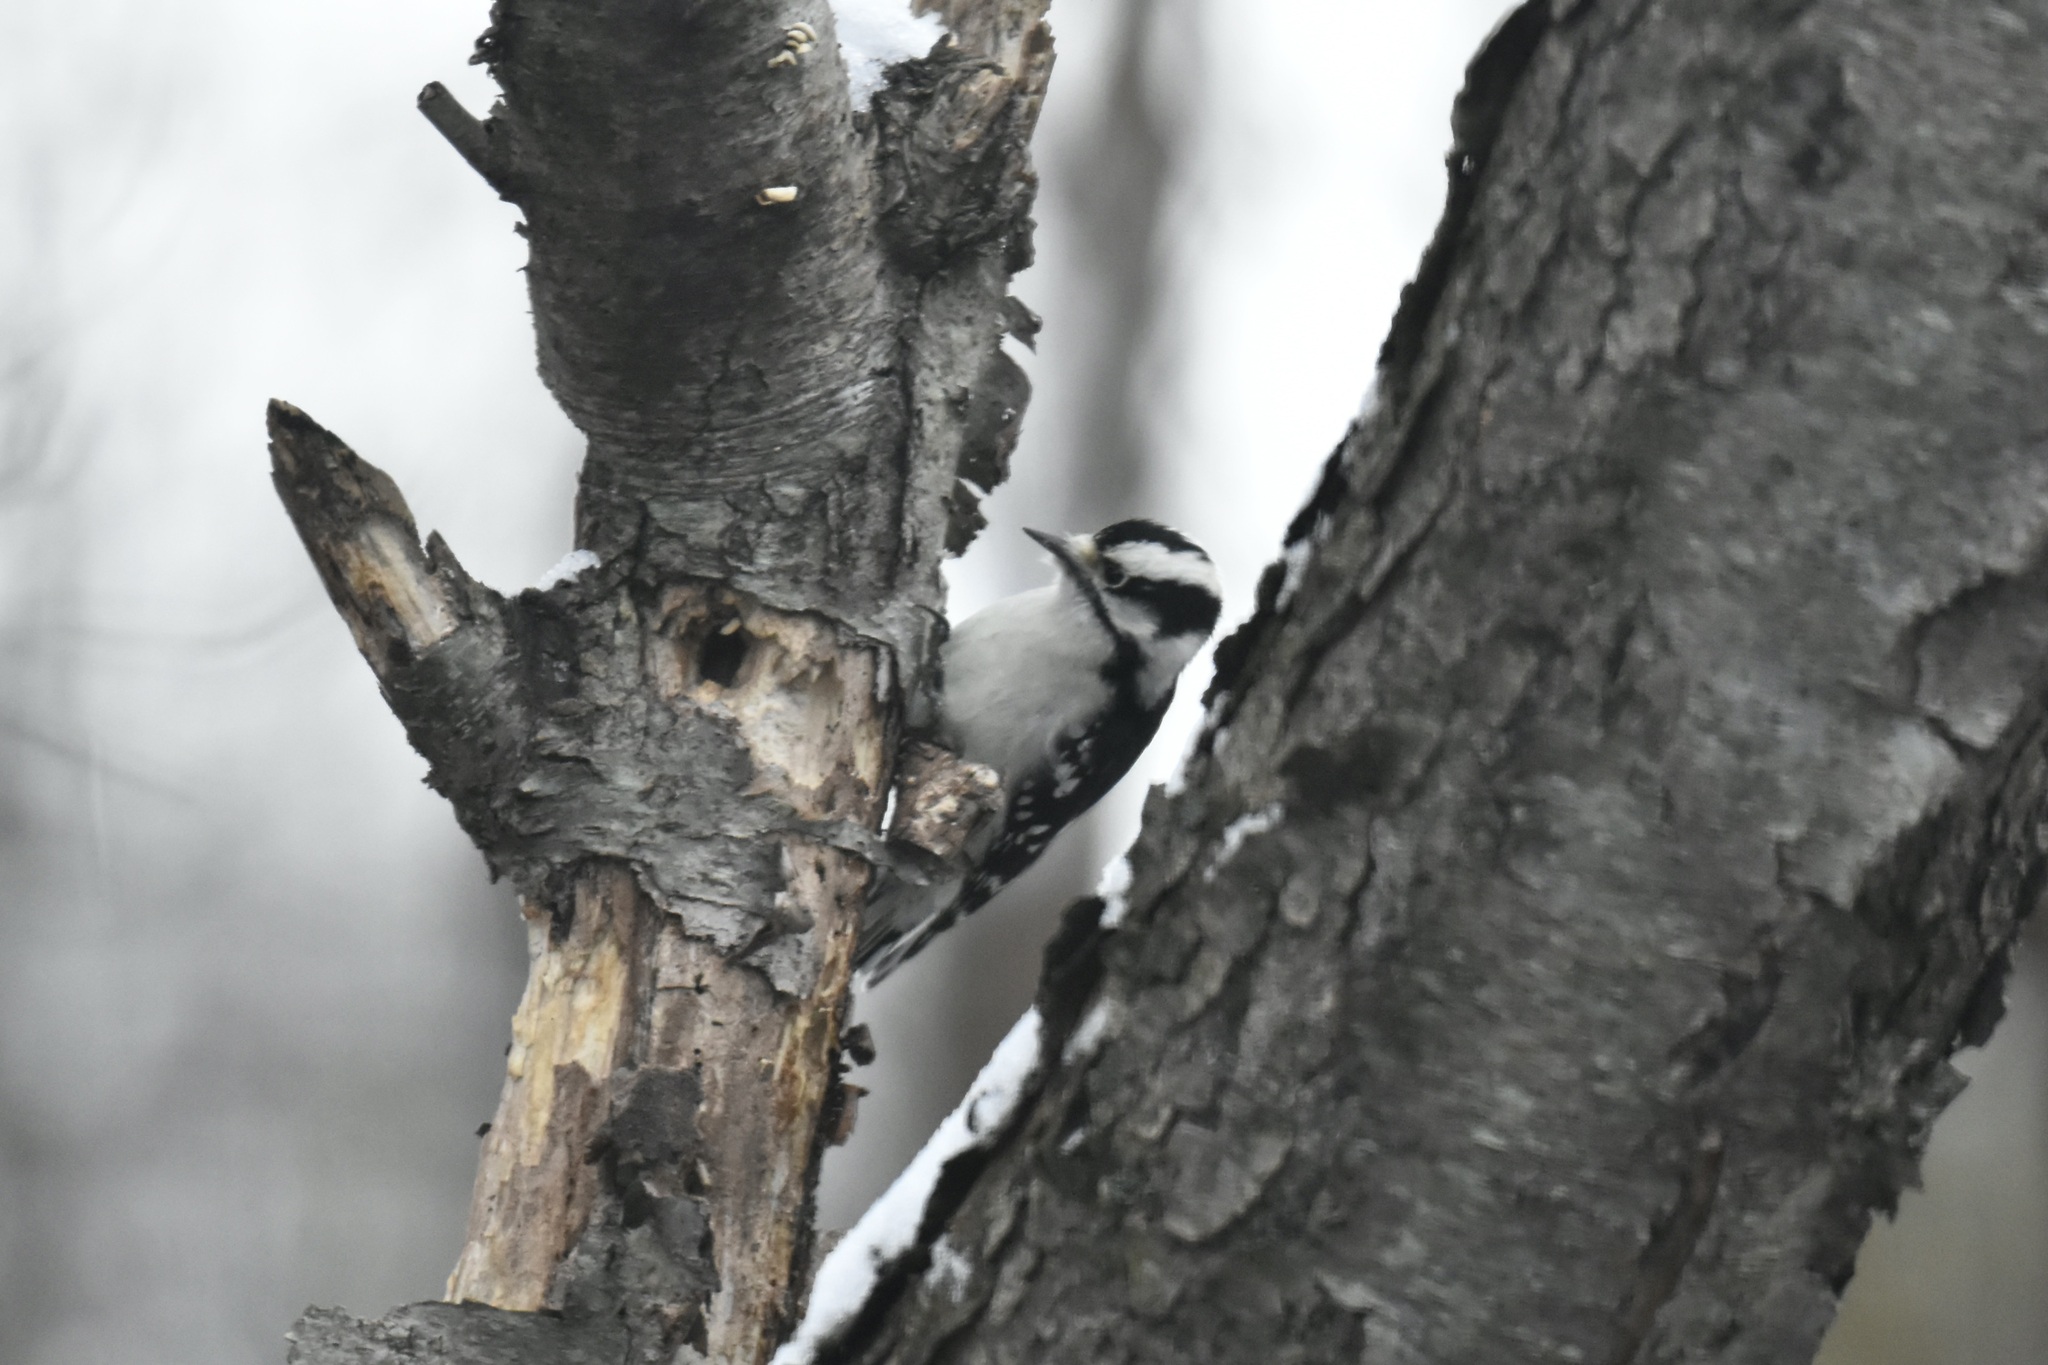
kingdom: Animalia
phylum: Chordata
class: Aves
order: Piciformes
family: Picidae
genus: Dryobates
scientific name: Dryobates pubescens
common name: Downy woodpecker
